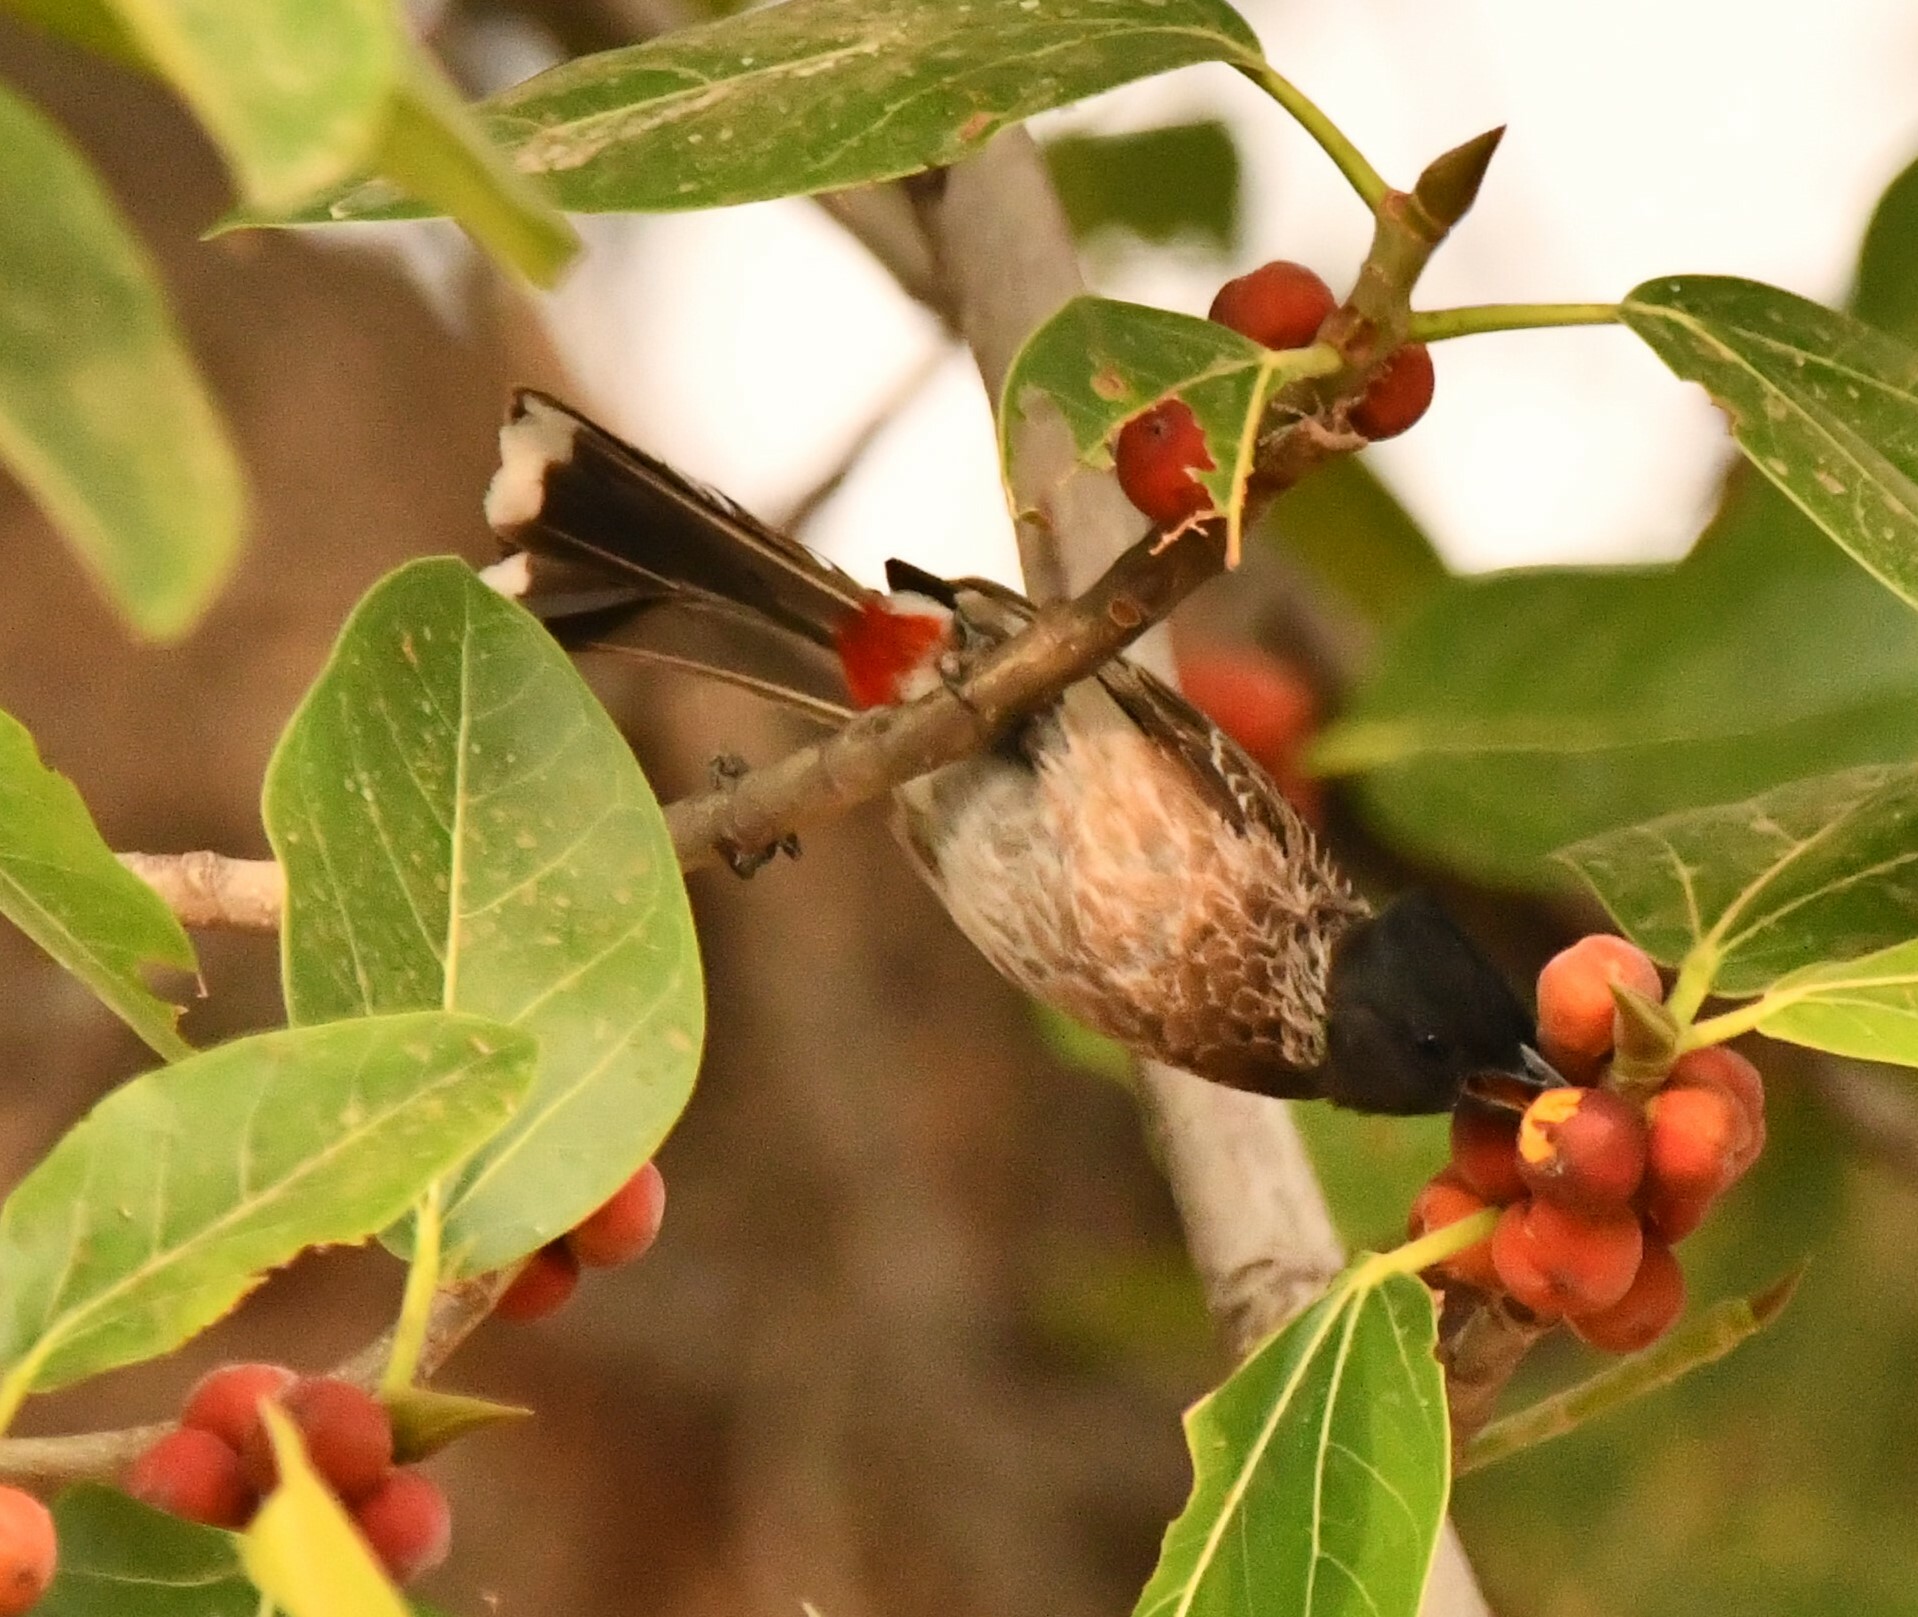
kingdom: Animalia
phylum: Chordata
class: Aves
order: Passeriformes
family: Pycnonotidae
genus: Pycnonotus
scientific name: Pycnonotus cafer
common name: Red-vented bulbul
